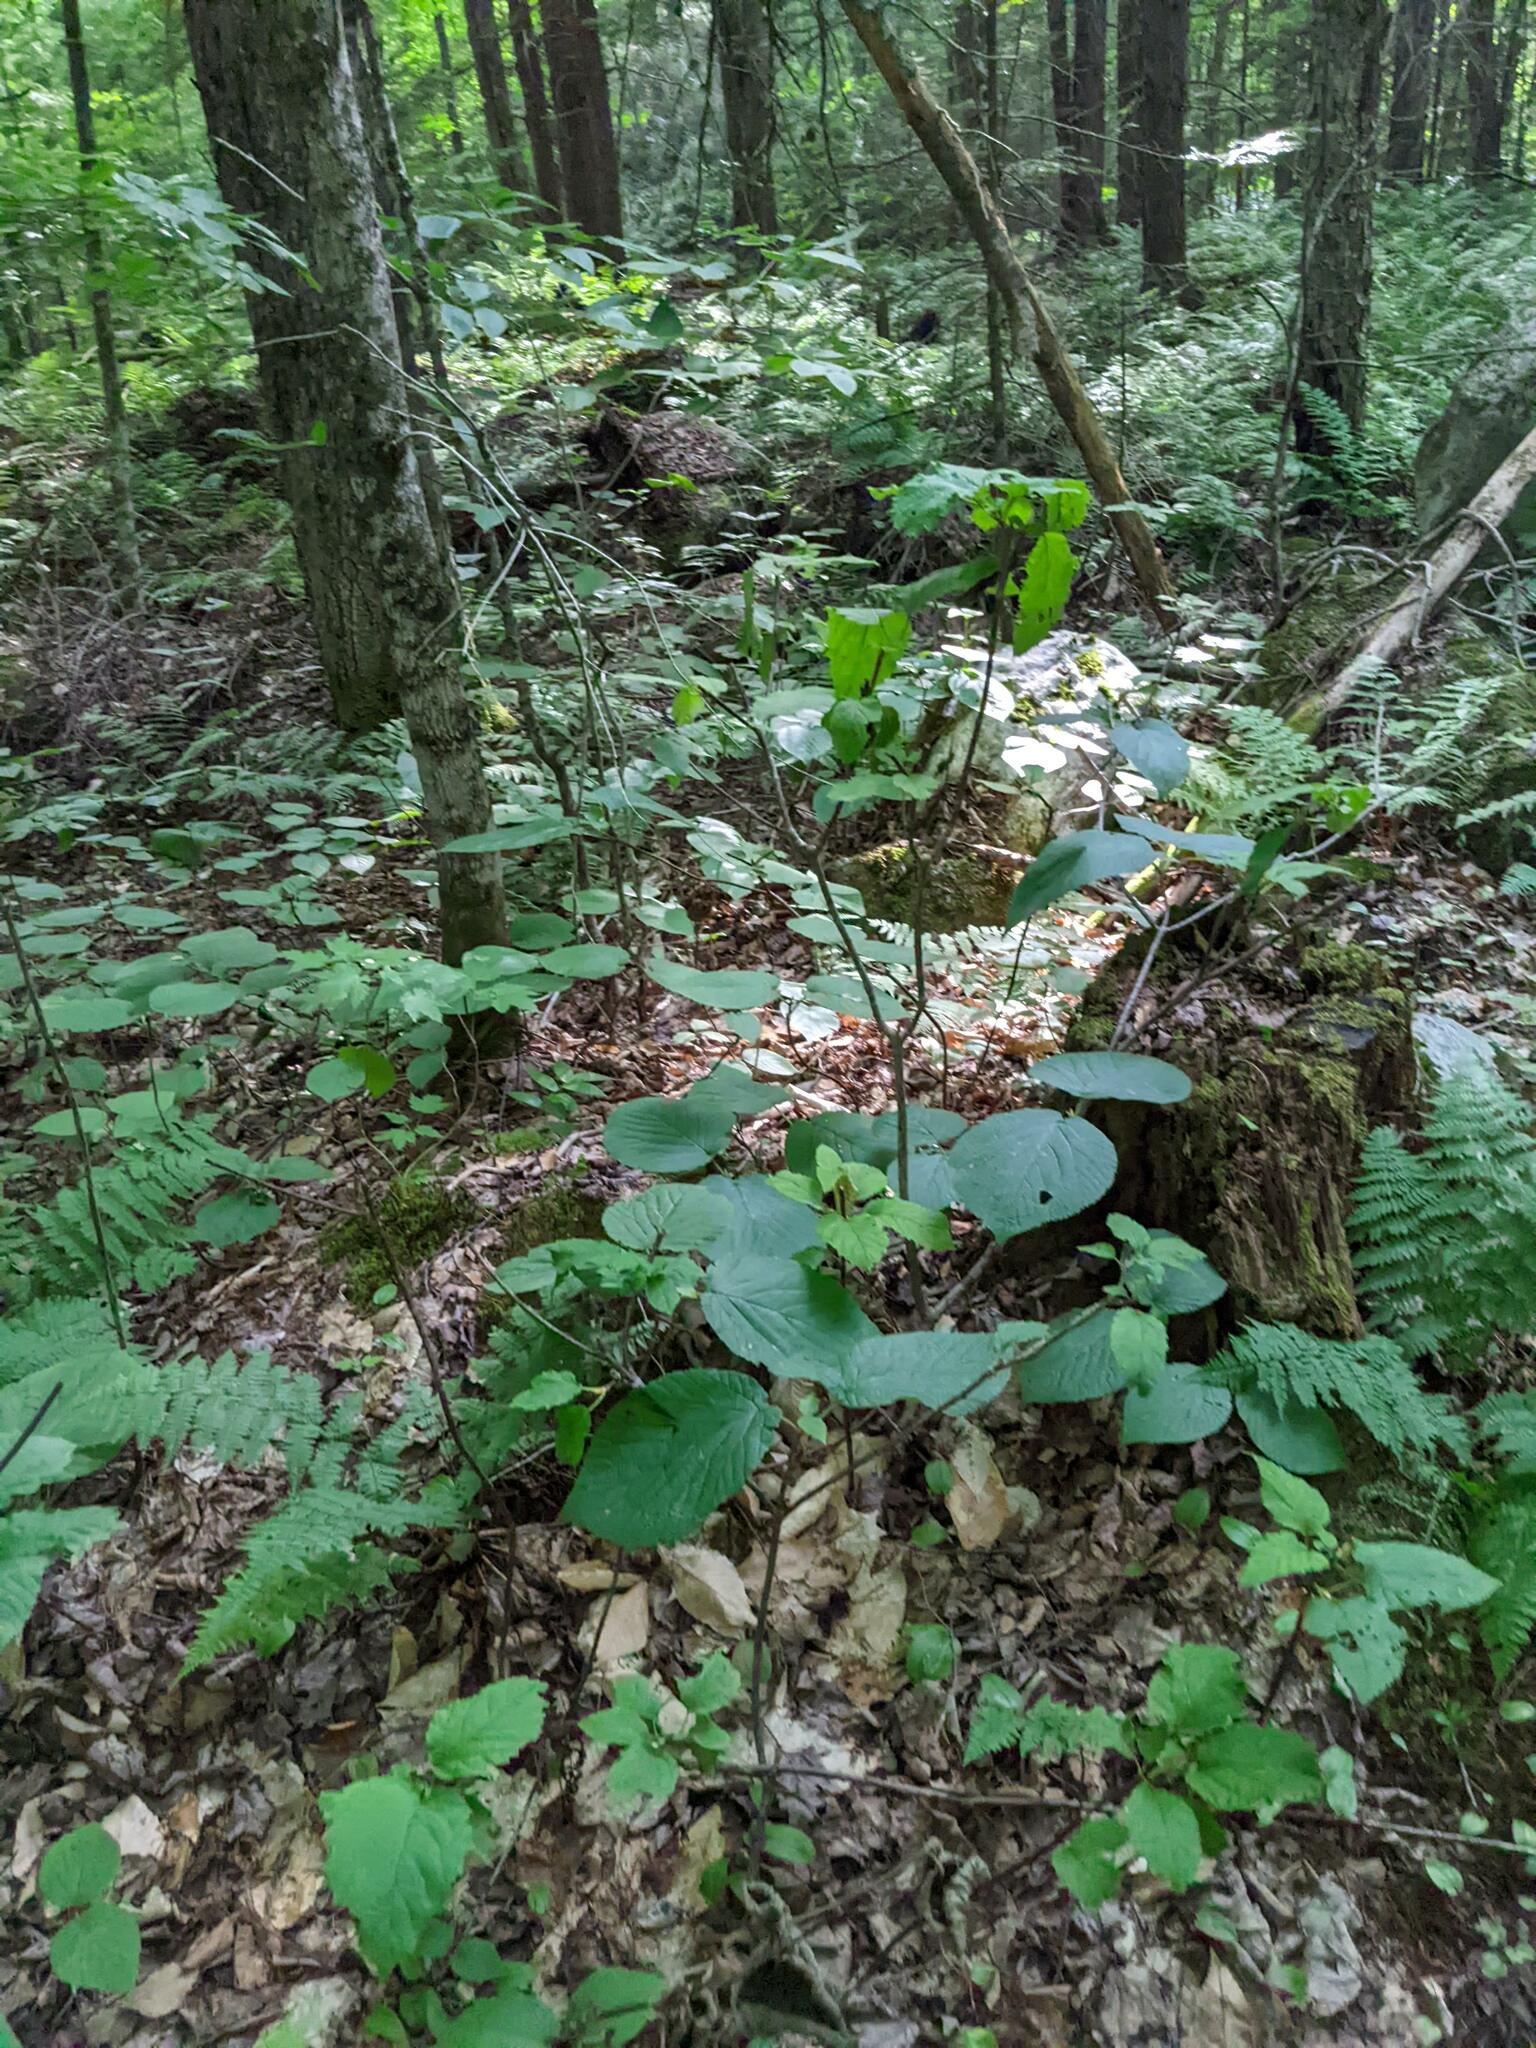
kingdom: Plantae
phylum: Tracheophyta
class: Magnoliopsida
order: Dipsacales
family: Viburnaceae
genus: Viburnum
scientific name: Viburnum lantanoides
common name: Hobblebush
